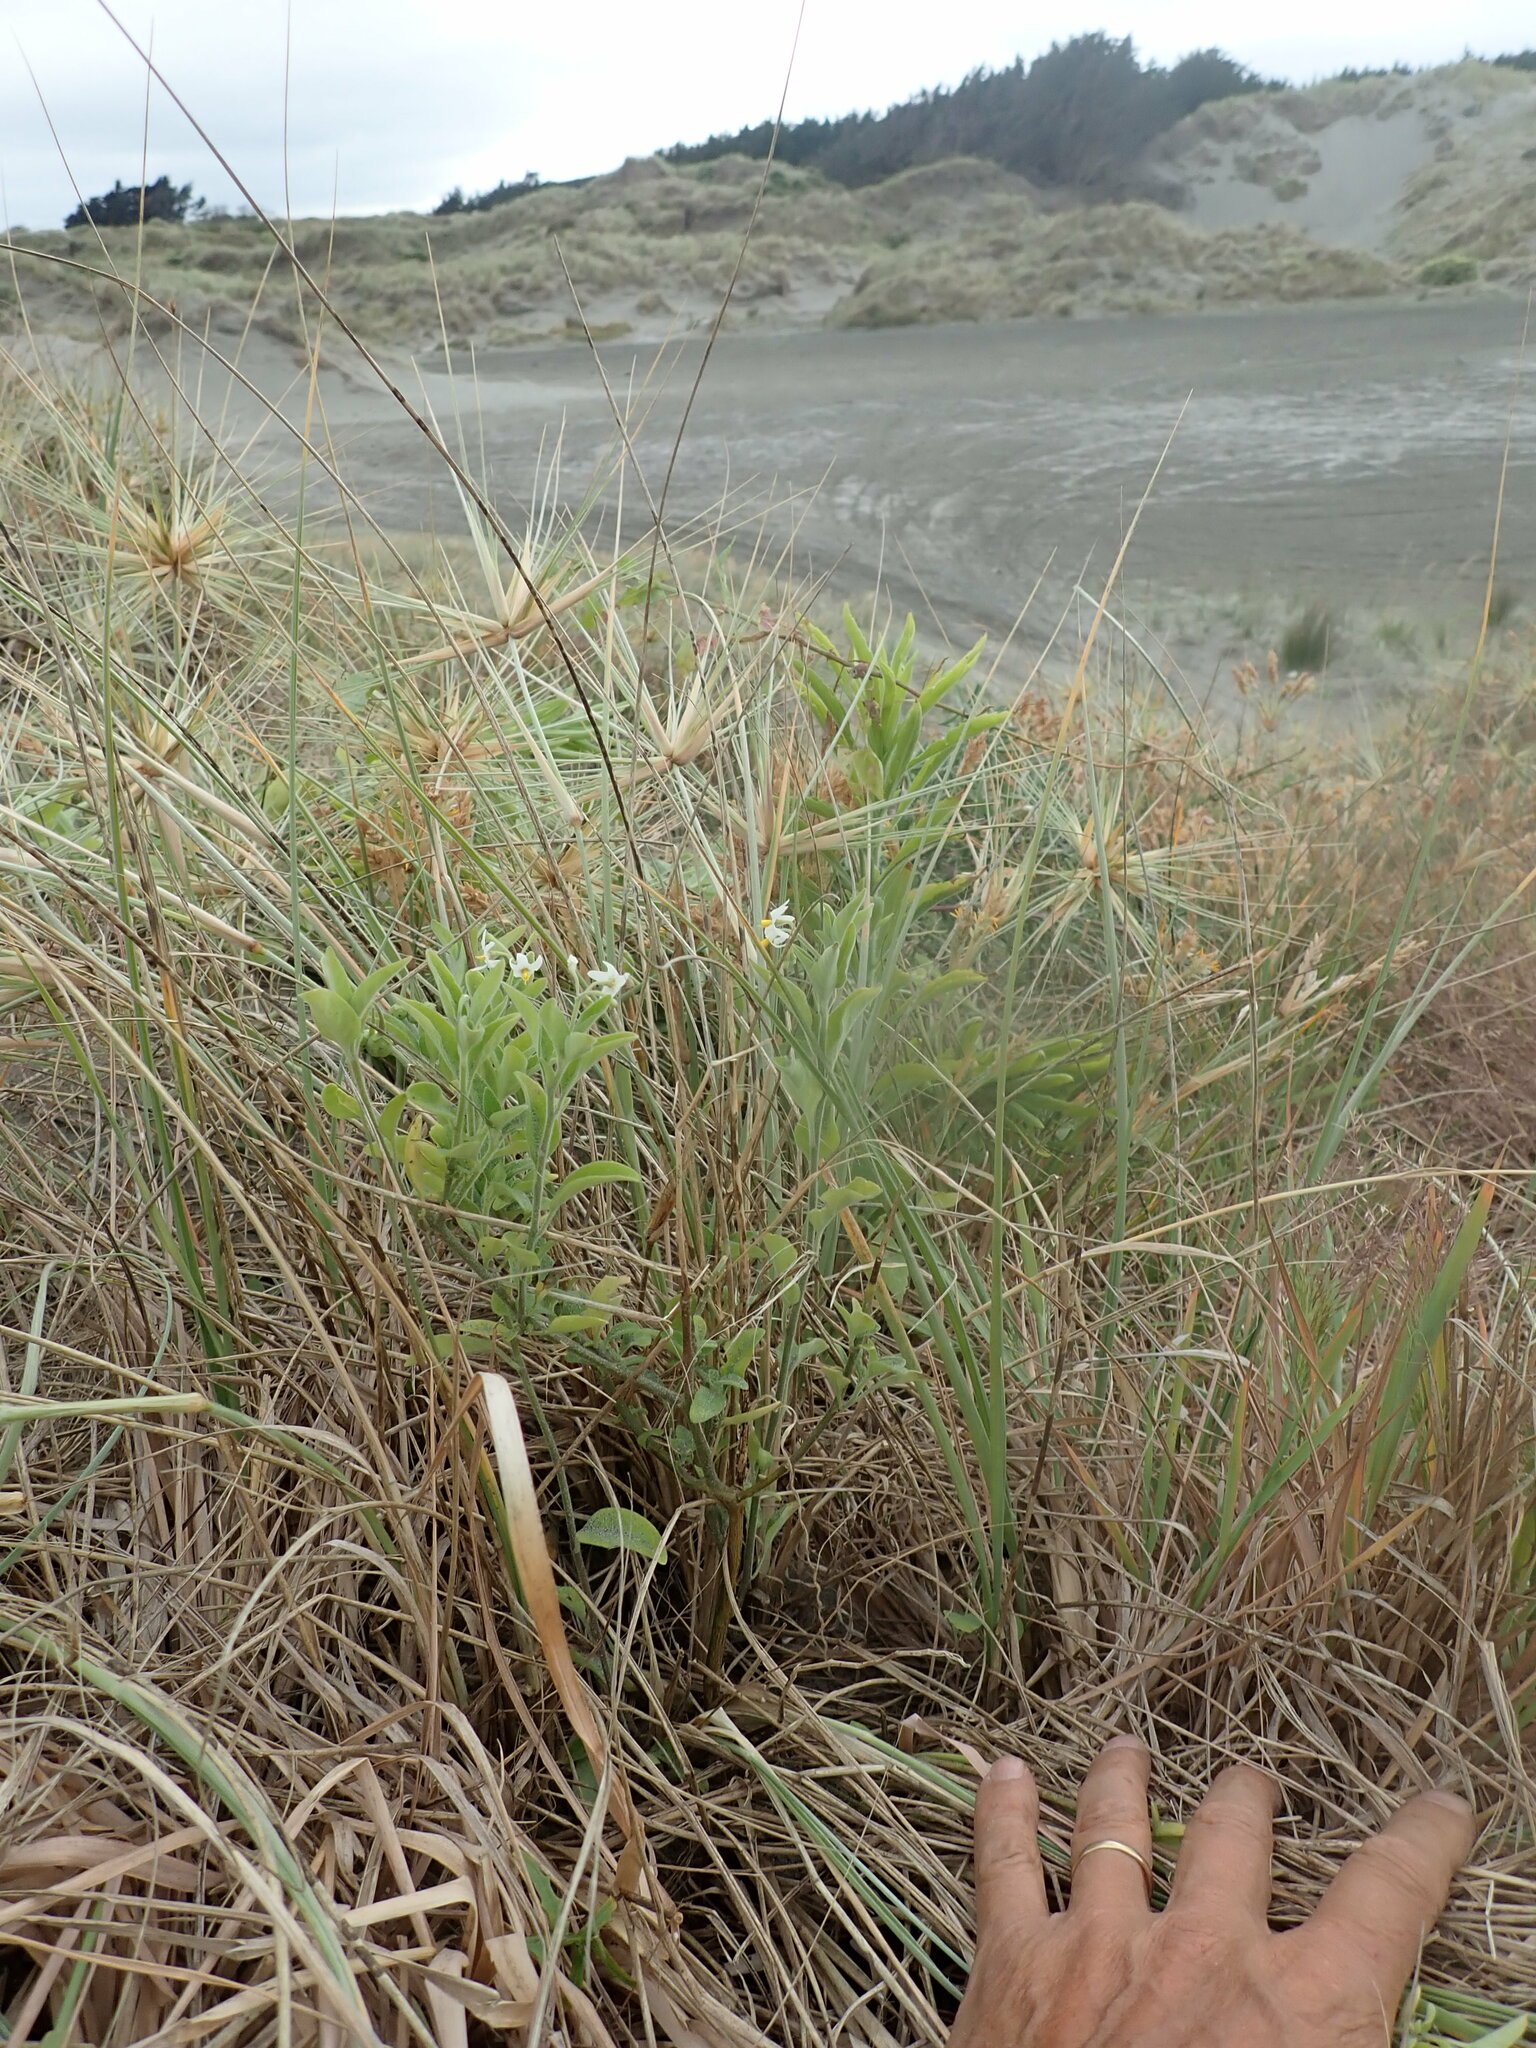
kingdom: Plantae
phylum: Tracheophyta
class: Magnoliopsida
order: Solanales
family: Solanaceae
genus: Solanum
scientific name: Solanum chenopodioides
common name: Tall nightshade
